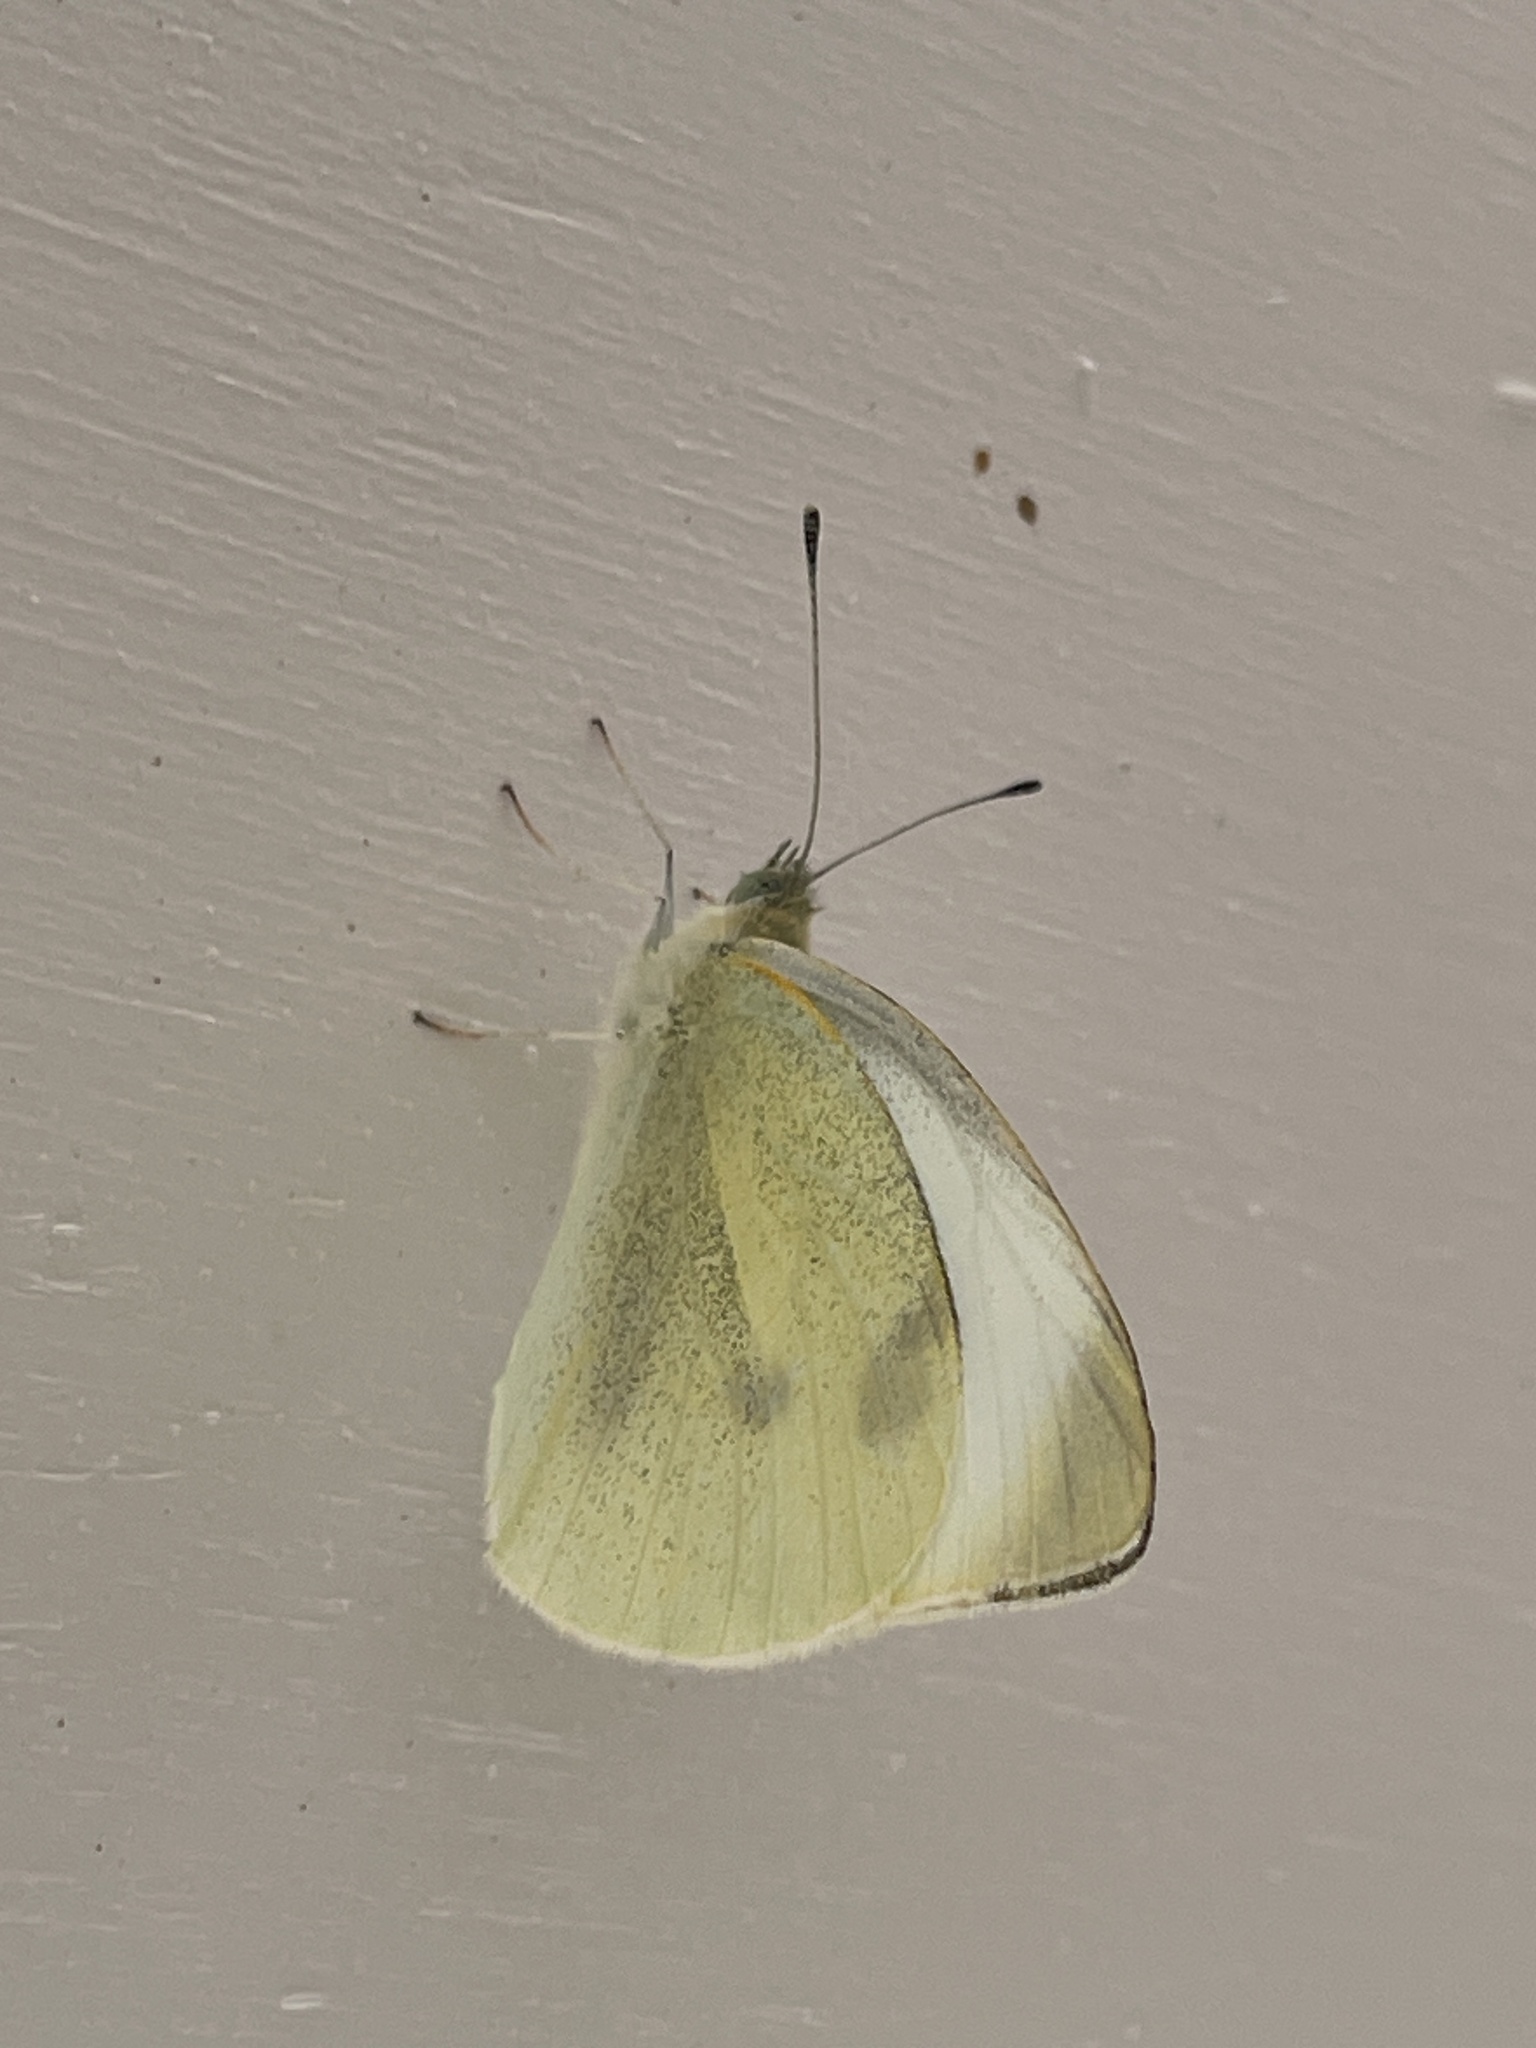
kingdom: Animalia
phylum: Arthropoda
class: Insecta
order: Lepidoptera
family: Pieridae
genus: Pieris
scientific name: Pieris rapae
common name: Small white
